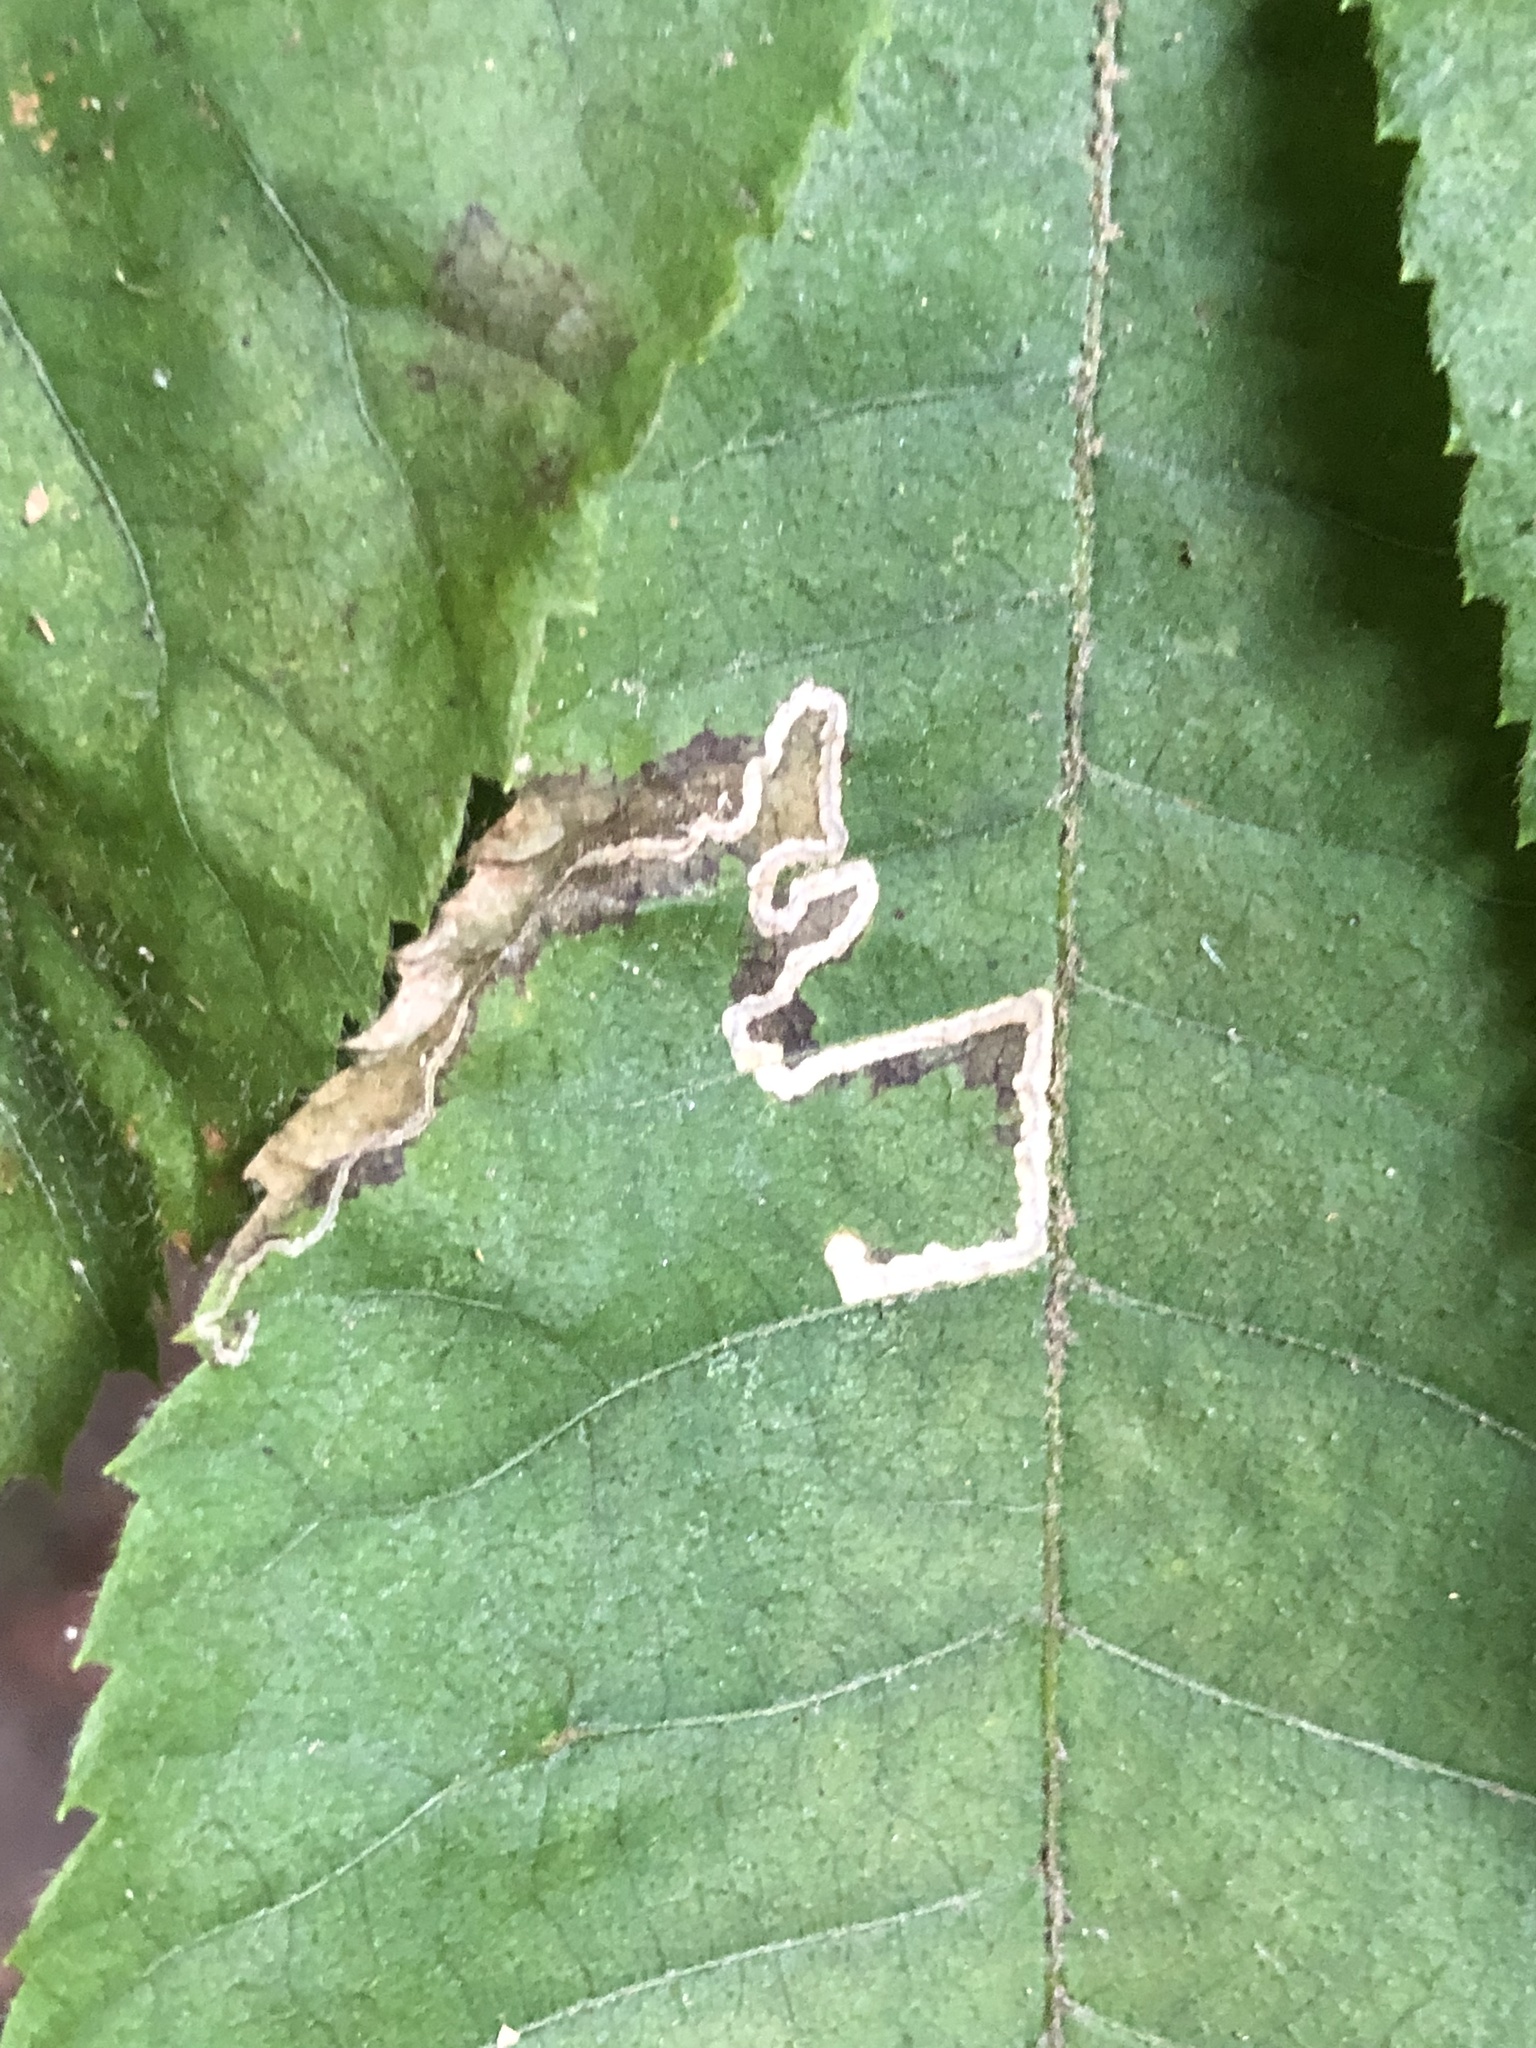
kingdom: Animalia
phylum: Arthropoda
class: Insecta
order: Lepidoptera
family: Nepticulidae
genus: Stigmella
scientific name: Stigmella caryaefoliella
